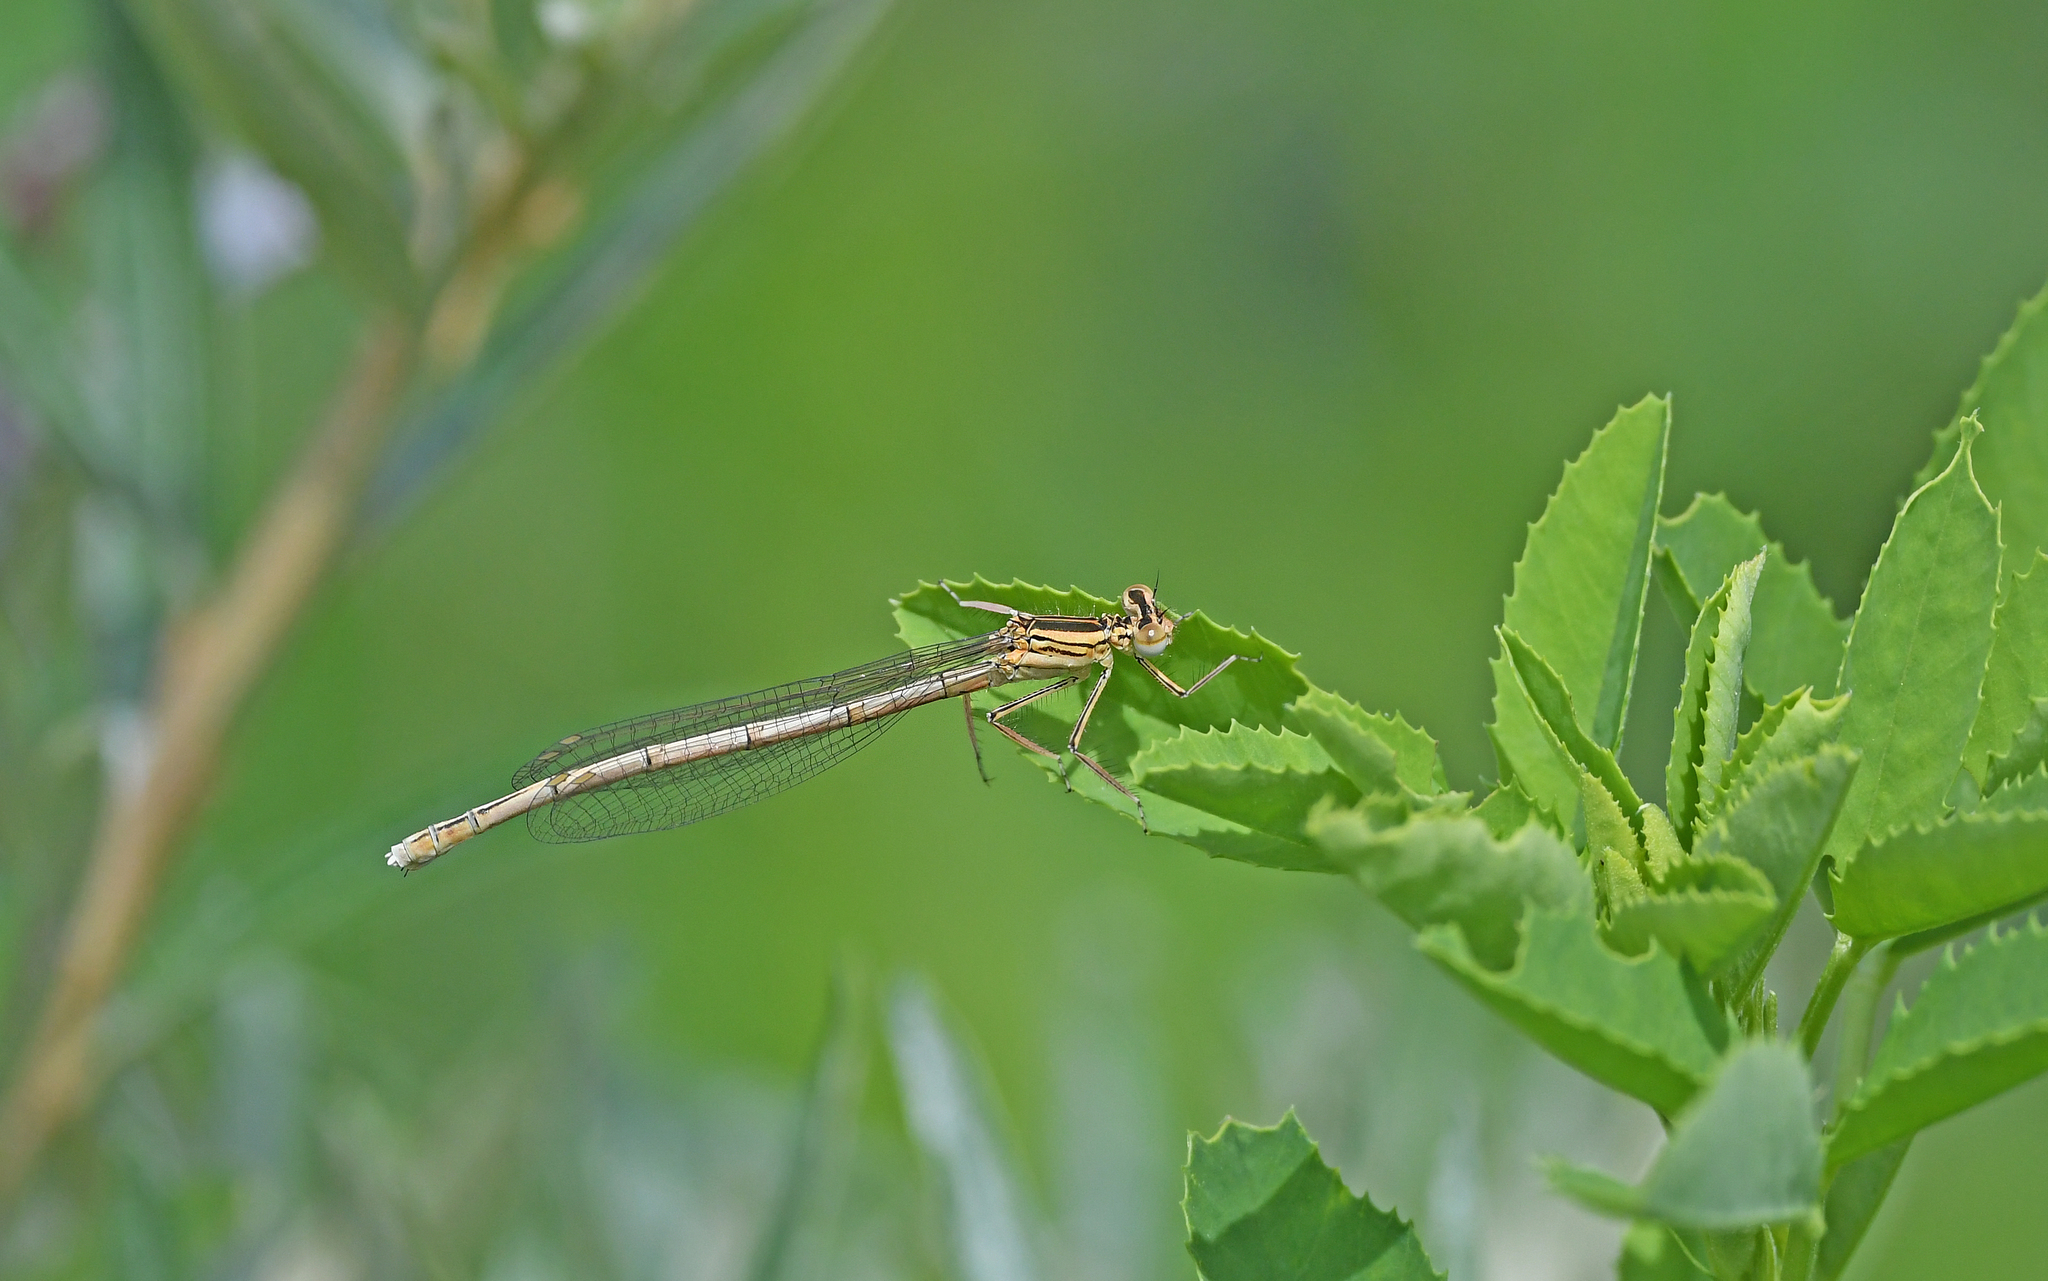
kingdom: Animalia
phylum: Arthropoda
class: Insecta
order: Odonata
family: Platycnemididae
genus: Platycnemis
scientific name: Platycnemis pennipes
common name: White-legged damselfly
